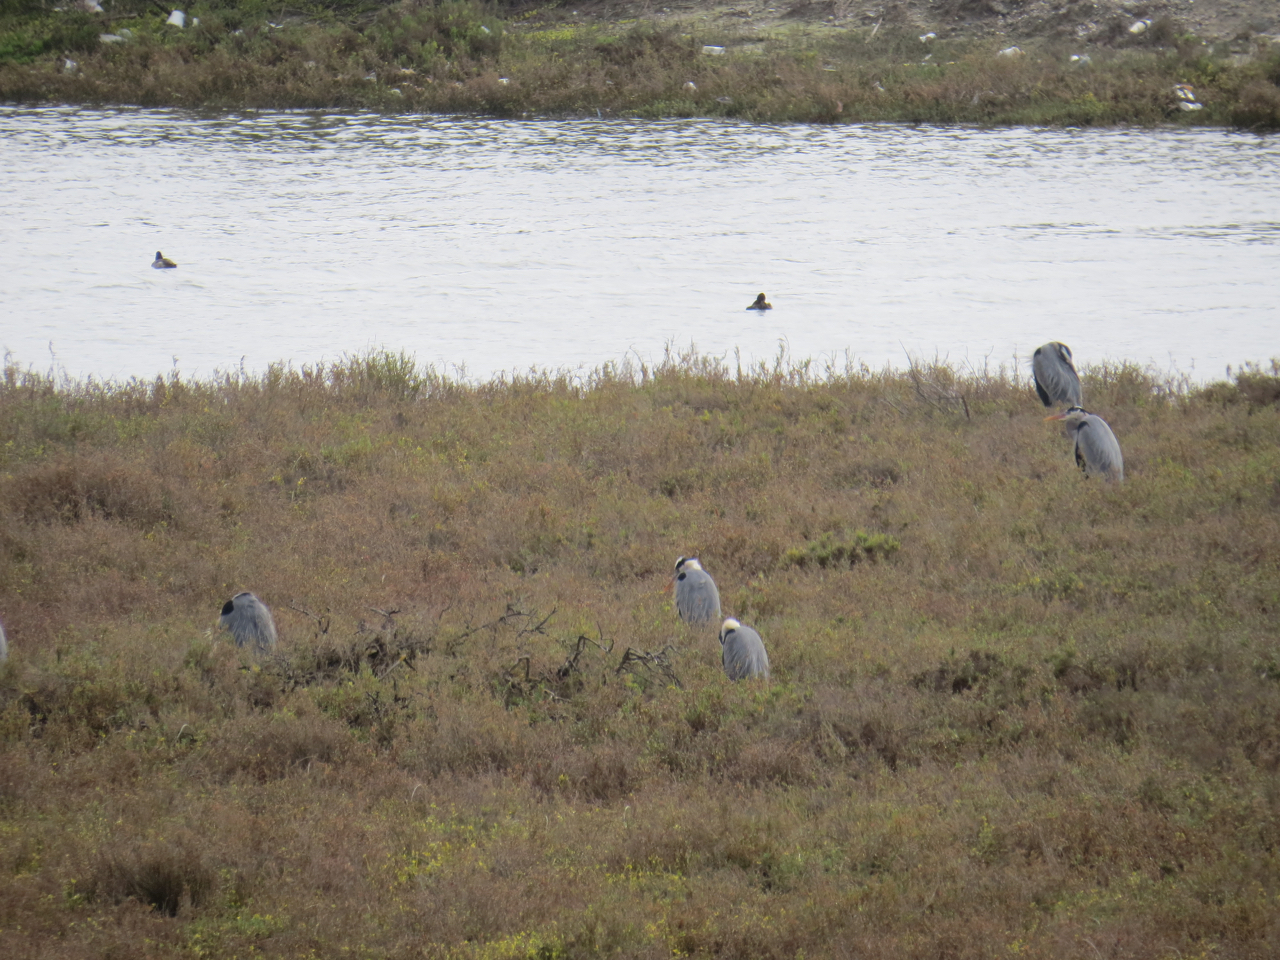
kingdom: Animalia
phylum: Chordata
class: Aves
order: Pelecaniformes
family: Ardeidae
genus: Ardea
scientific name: Ardea herodias
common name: Great blue heron
